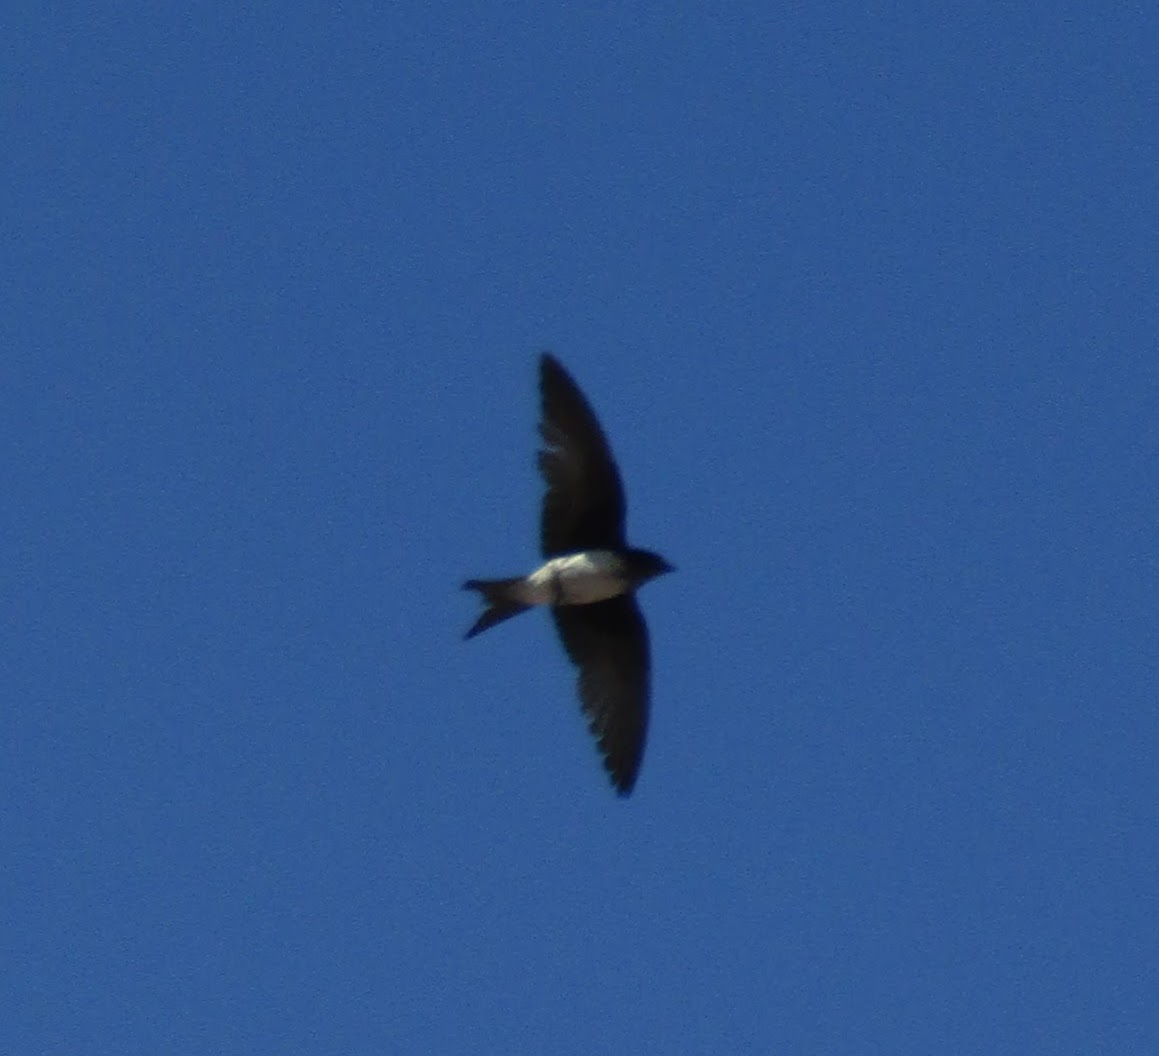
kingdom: Animalia
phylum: Chordata
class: Aves
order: Passeriformes
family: Hirundinidae
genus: Progne
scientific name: Progne chalybea
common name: Grey-breasted martin
